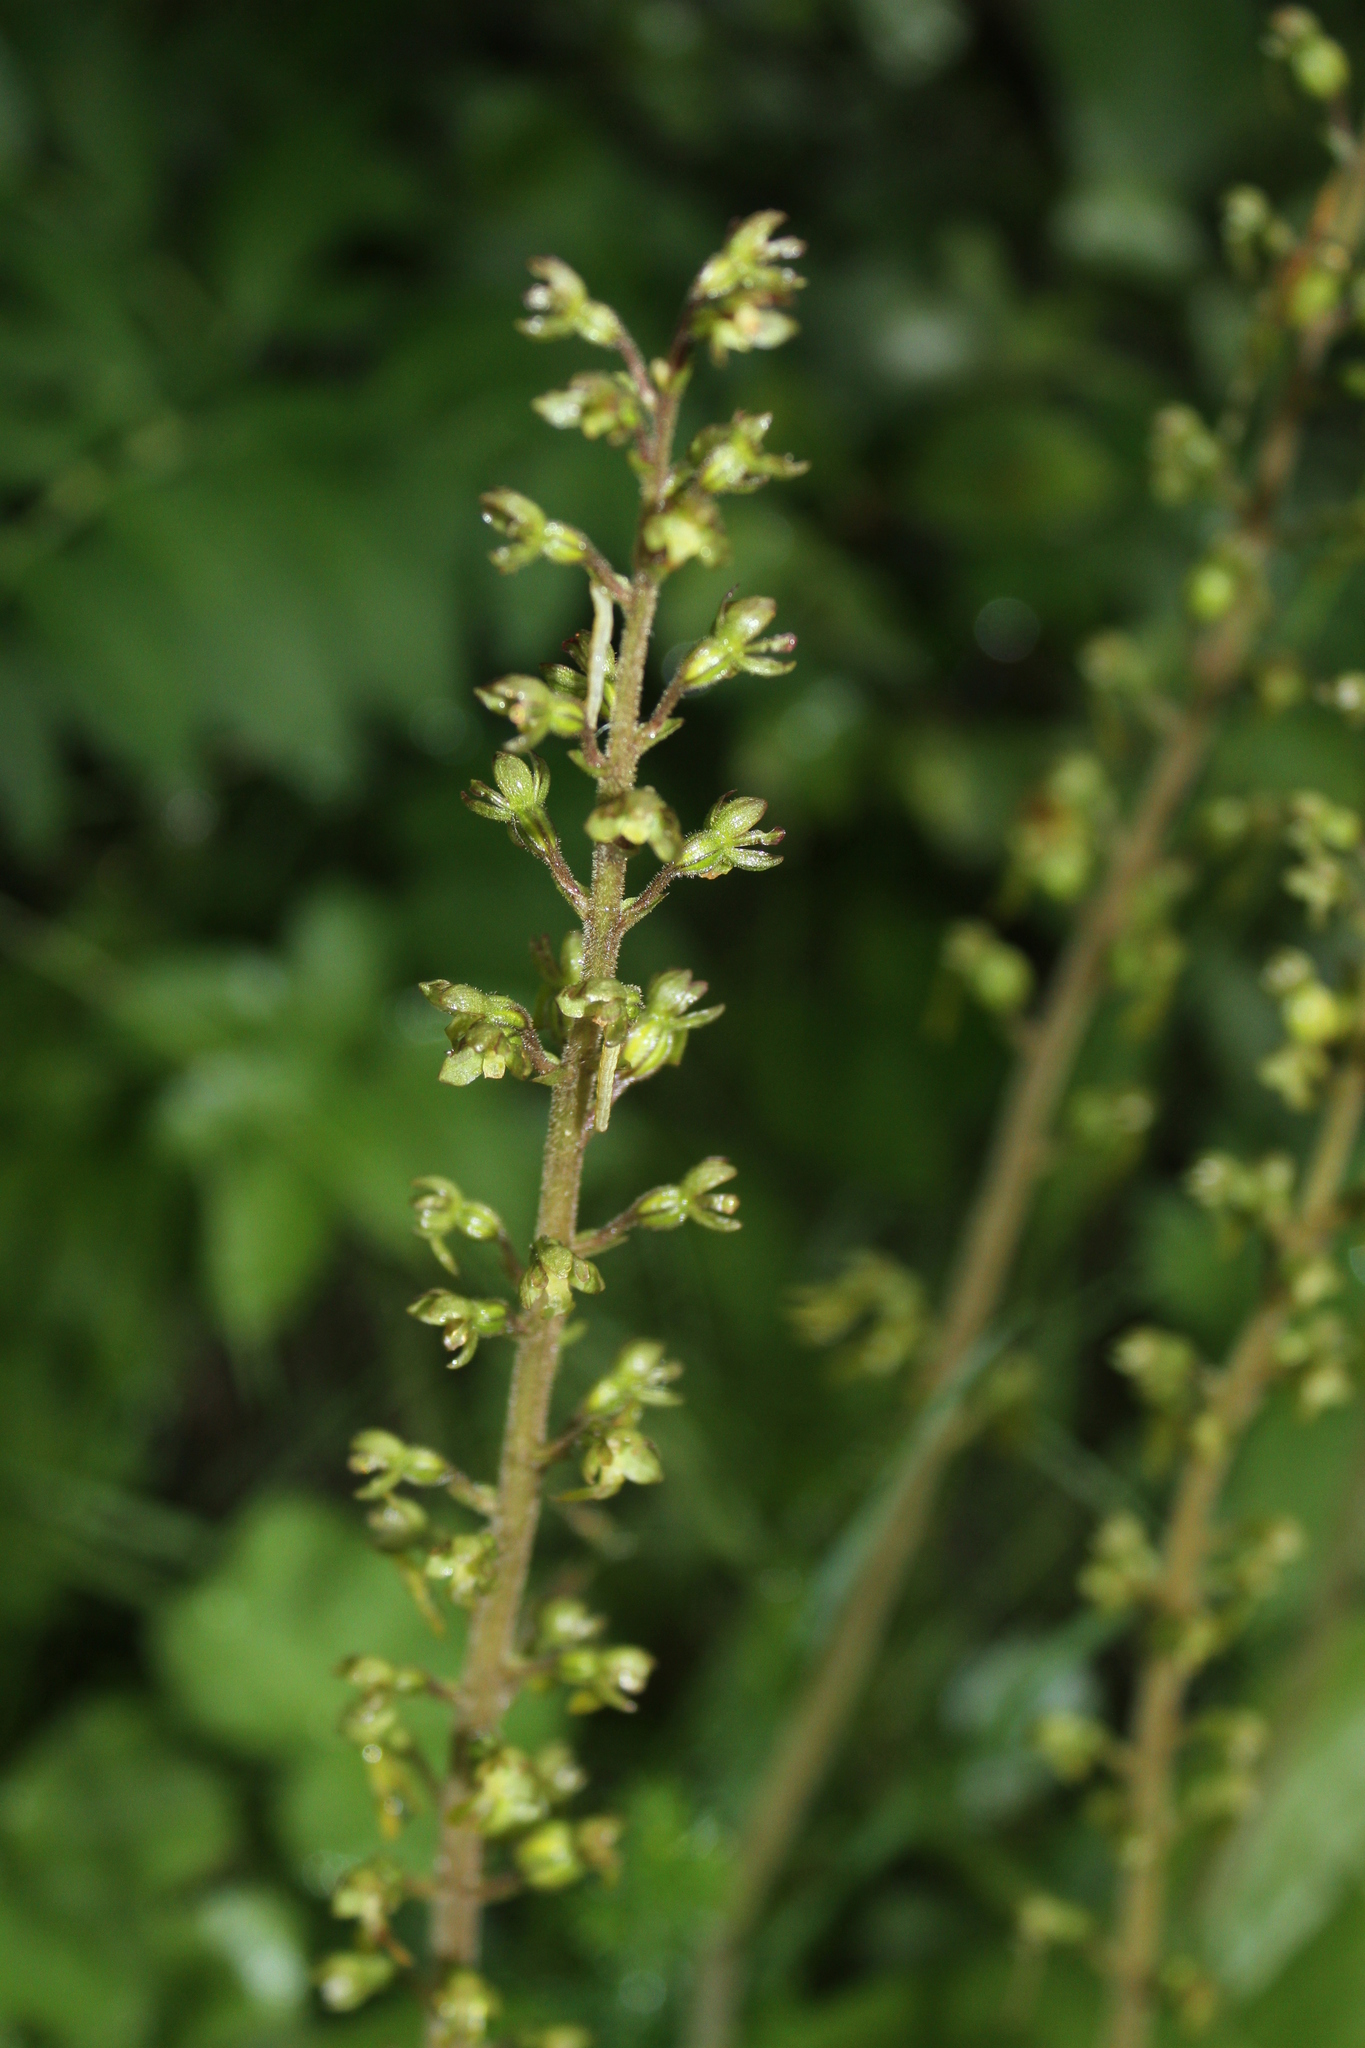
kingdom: Plantae
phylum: Tracheophyta
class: Liliopsida
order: Asparagales
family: Orchidaceae
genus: Neottia
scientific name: Neottia ovata
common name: Common twayblade
